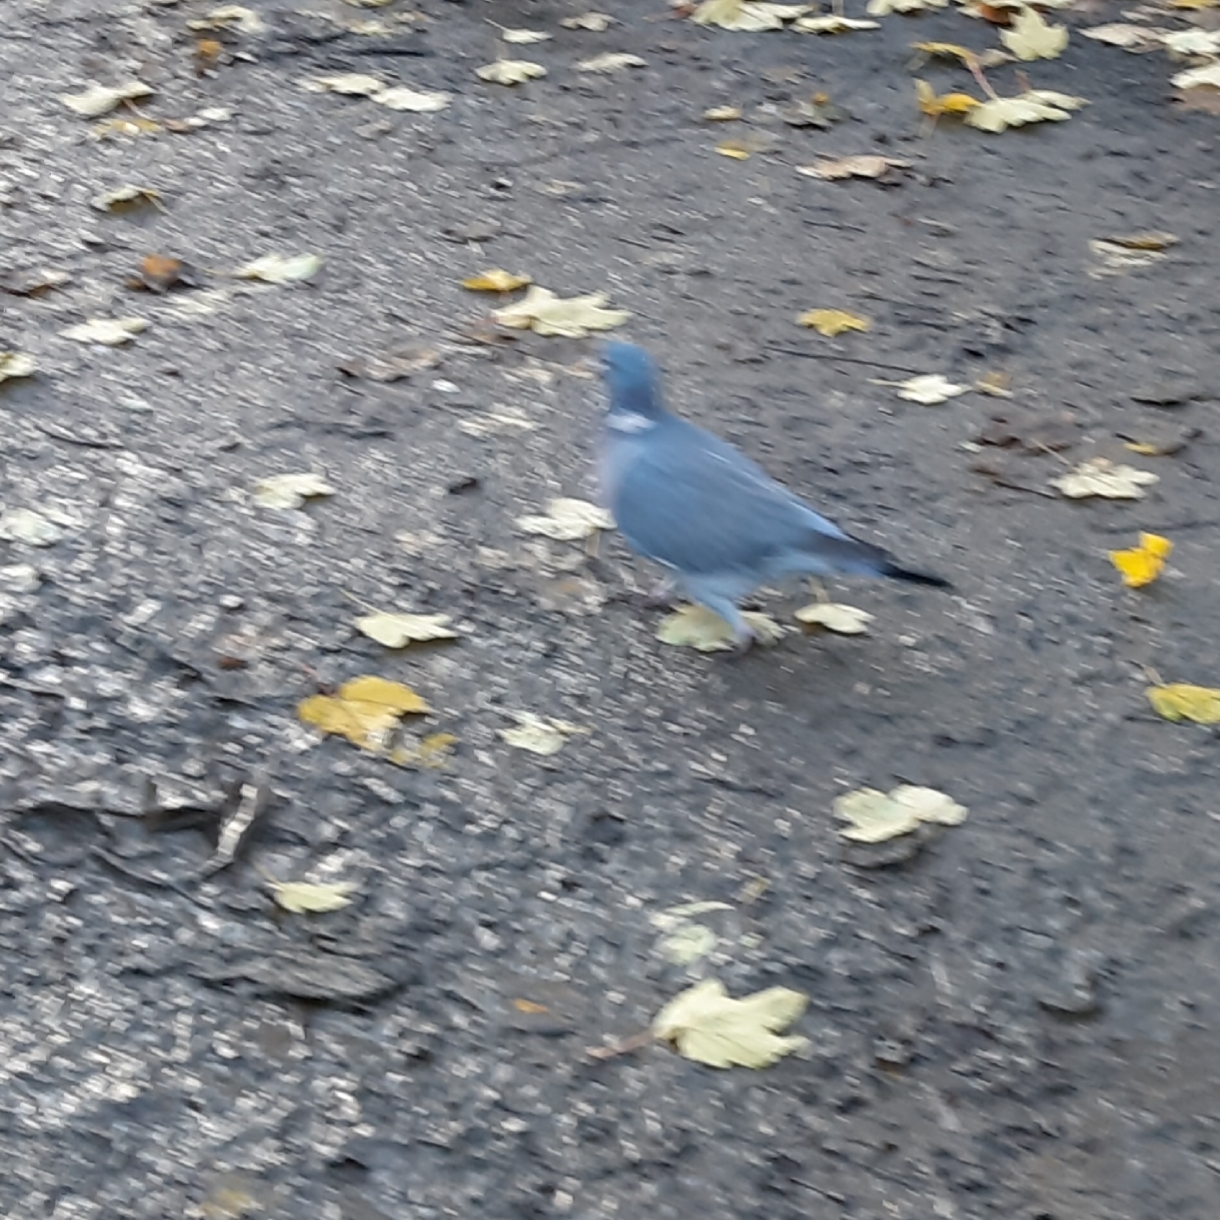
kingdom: Animalia
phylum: Chordata
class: Aves
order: Columbiformes
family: Columbidae
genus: Columba
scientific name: Columba palumbus
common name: Common wood pigeon
